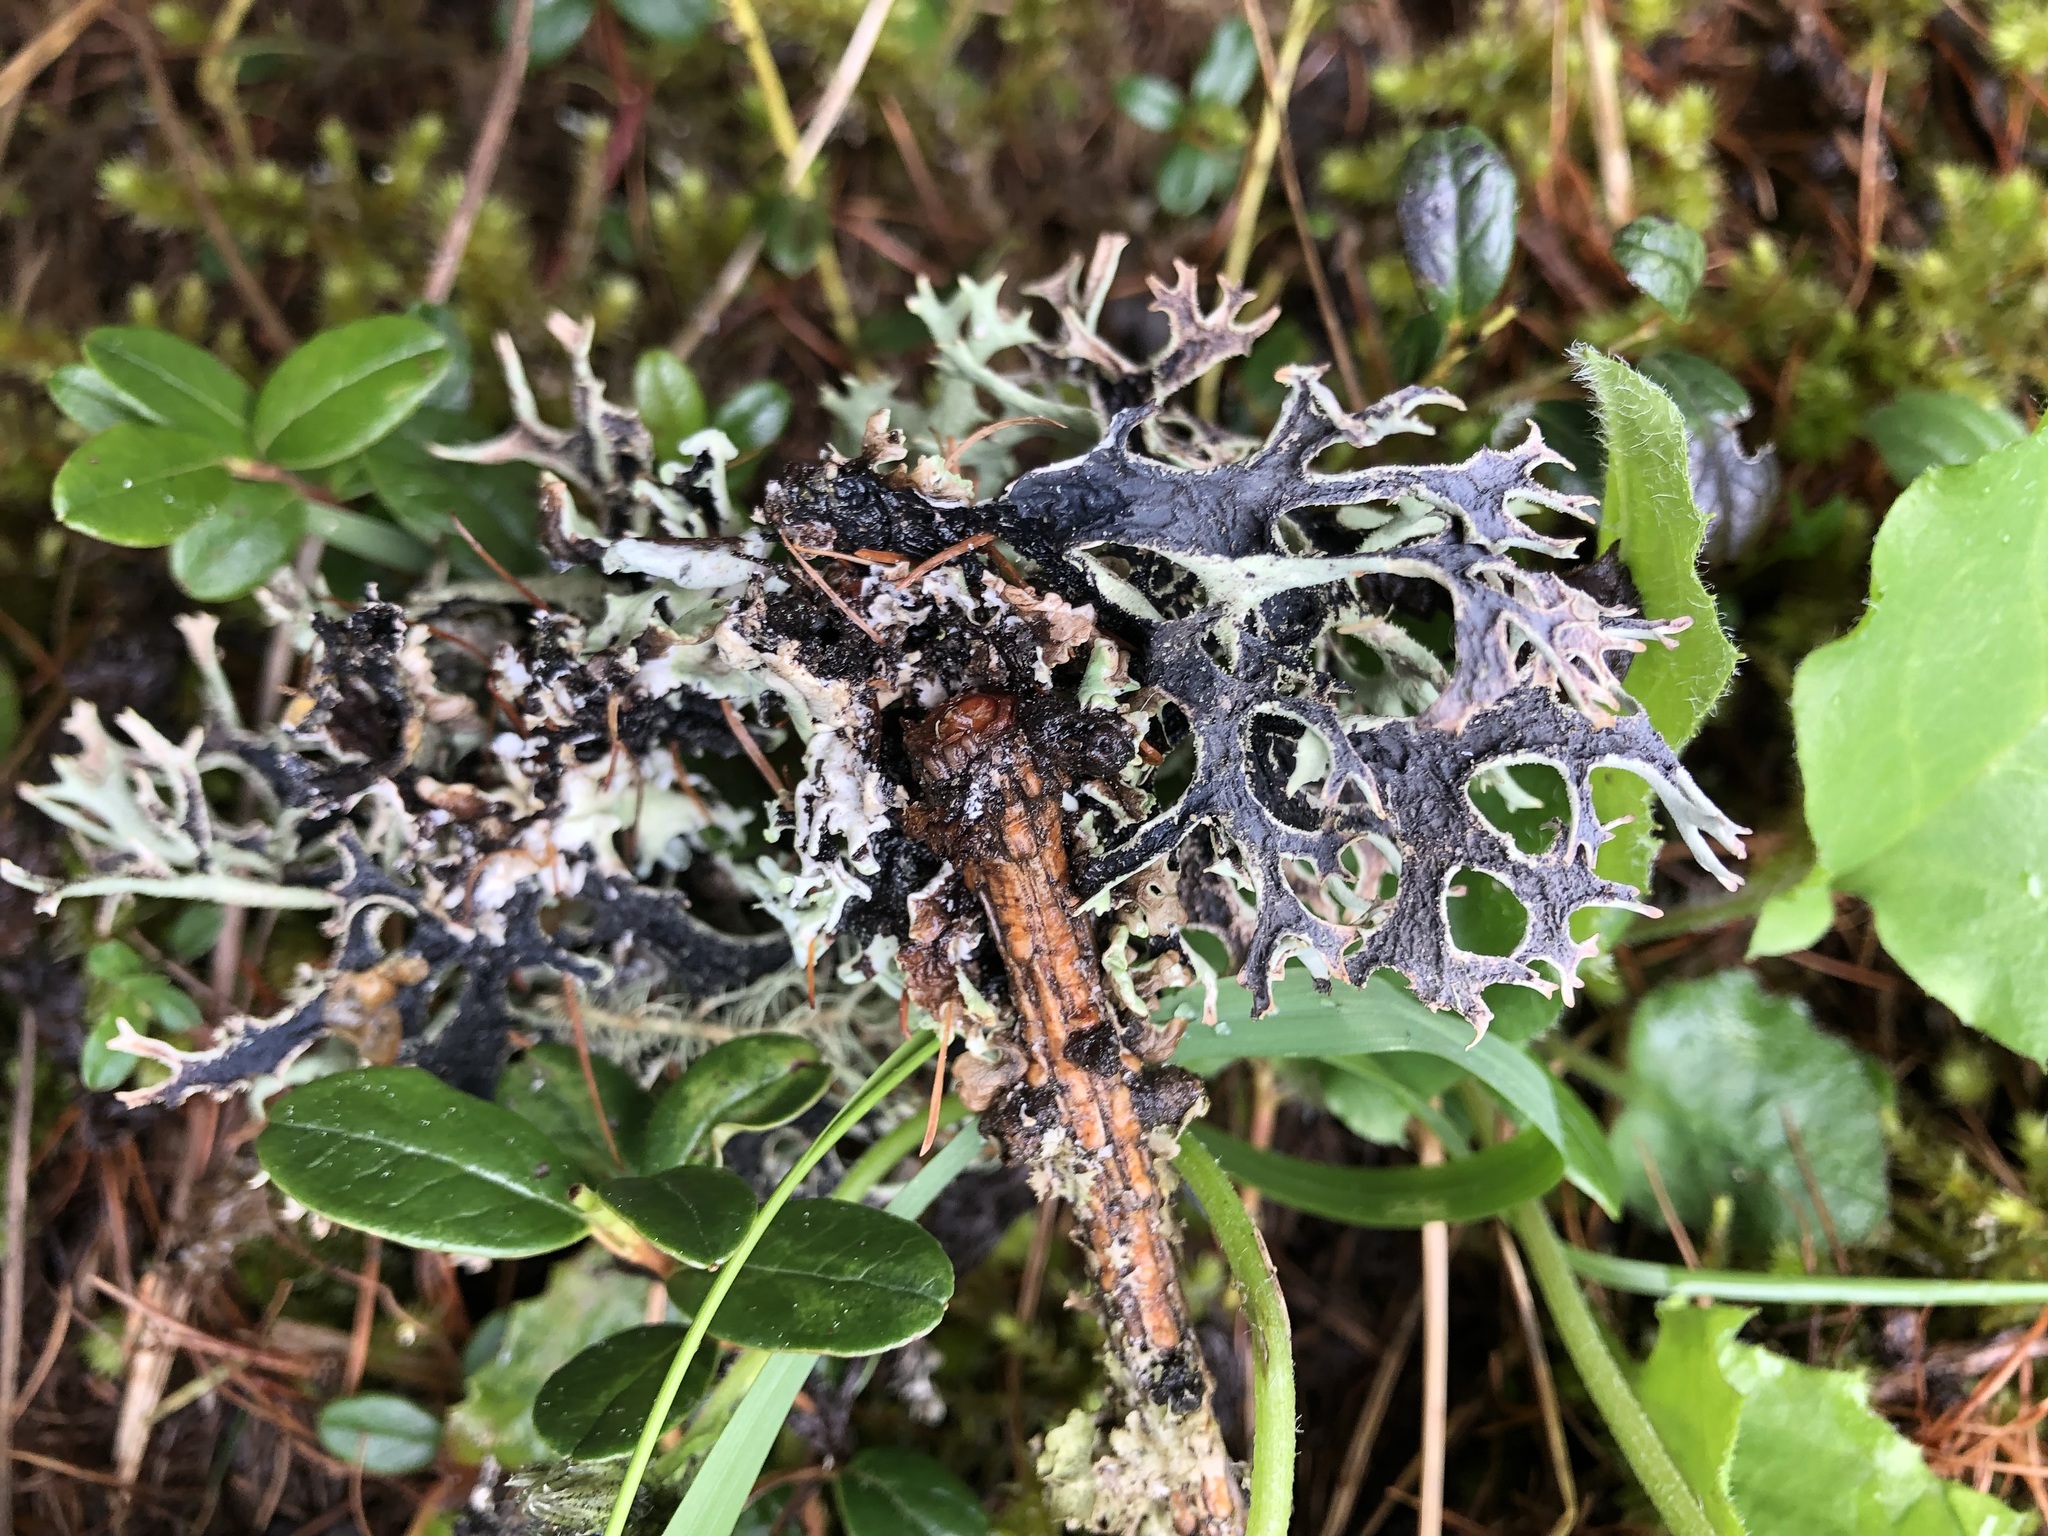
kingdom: Fungi
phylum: Ascomycota
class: Lecanoromycetes
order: Lecanorales
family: Parmeliaceae
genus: Pseudevernia
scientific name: Pseudevernia furfuracea
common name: Tree moss
